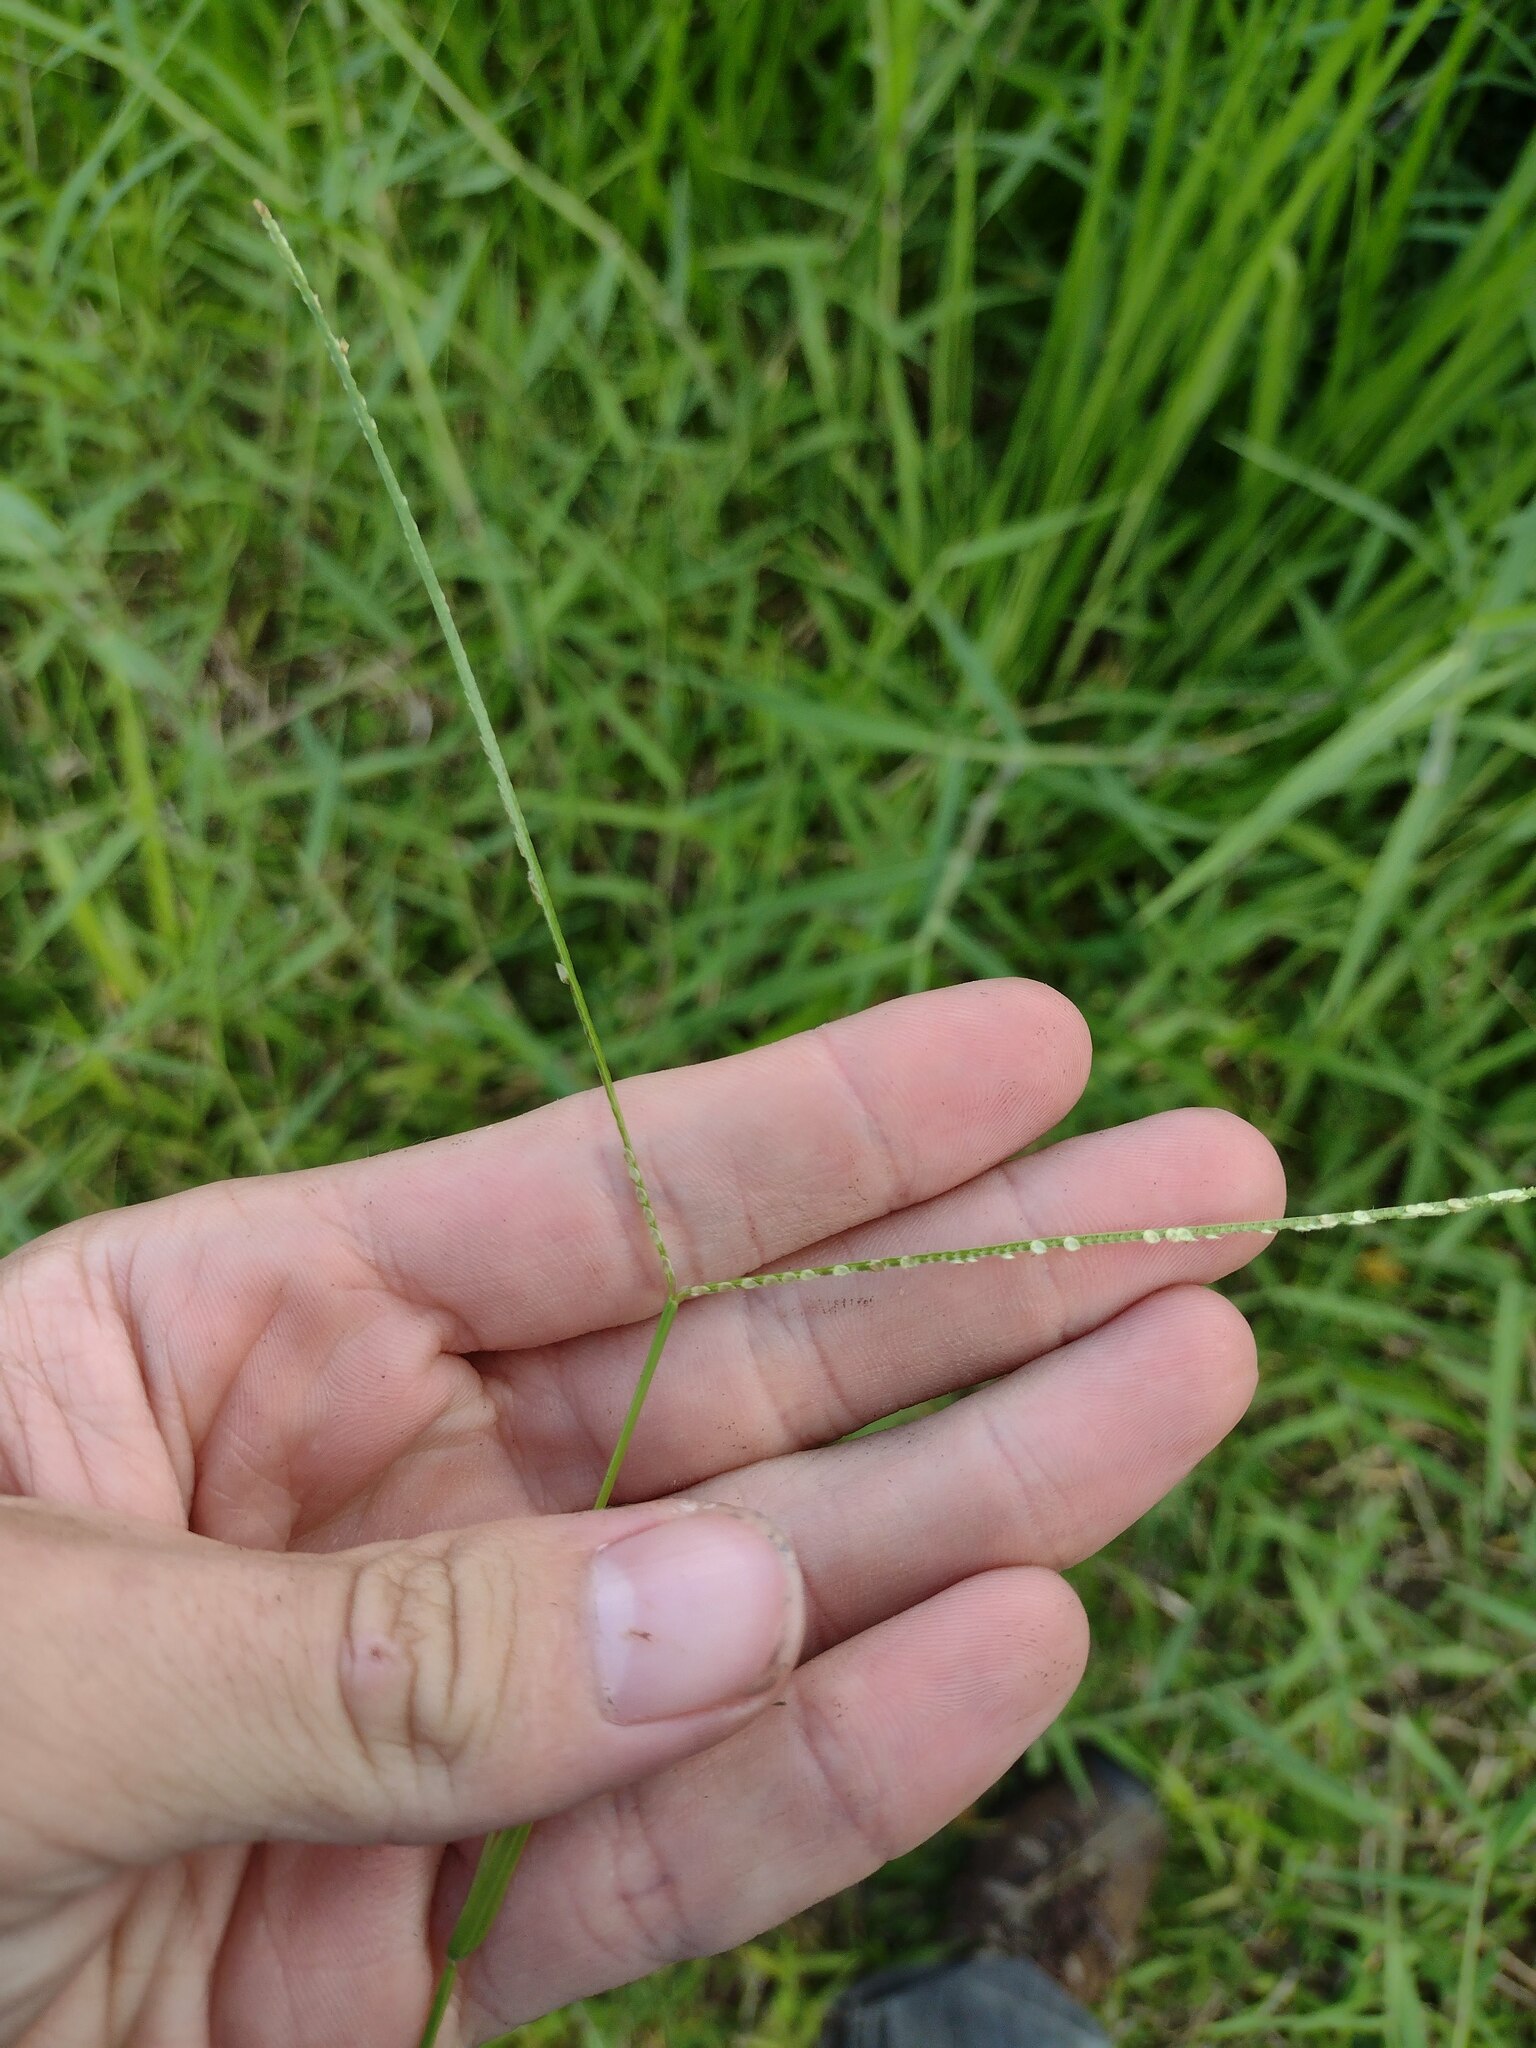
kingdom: Plantae
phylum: Tracheophyta
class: Liliopsida
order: Poales
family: Poaceae
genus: Paspalum
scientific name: Paspalum conjugatum
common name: Hilograss
